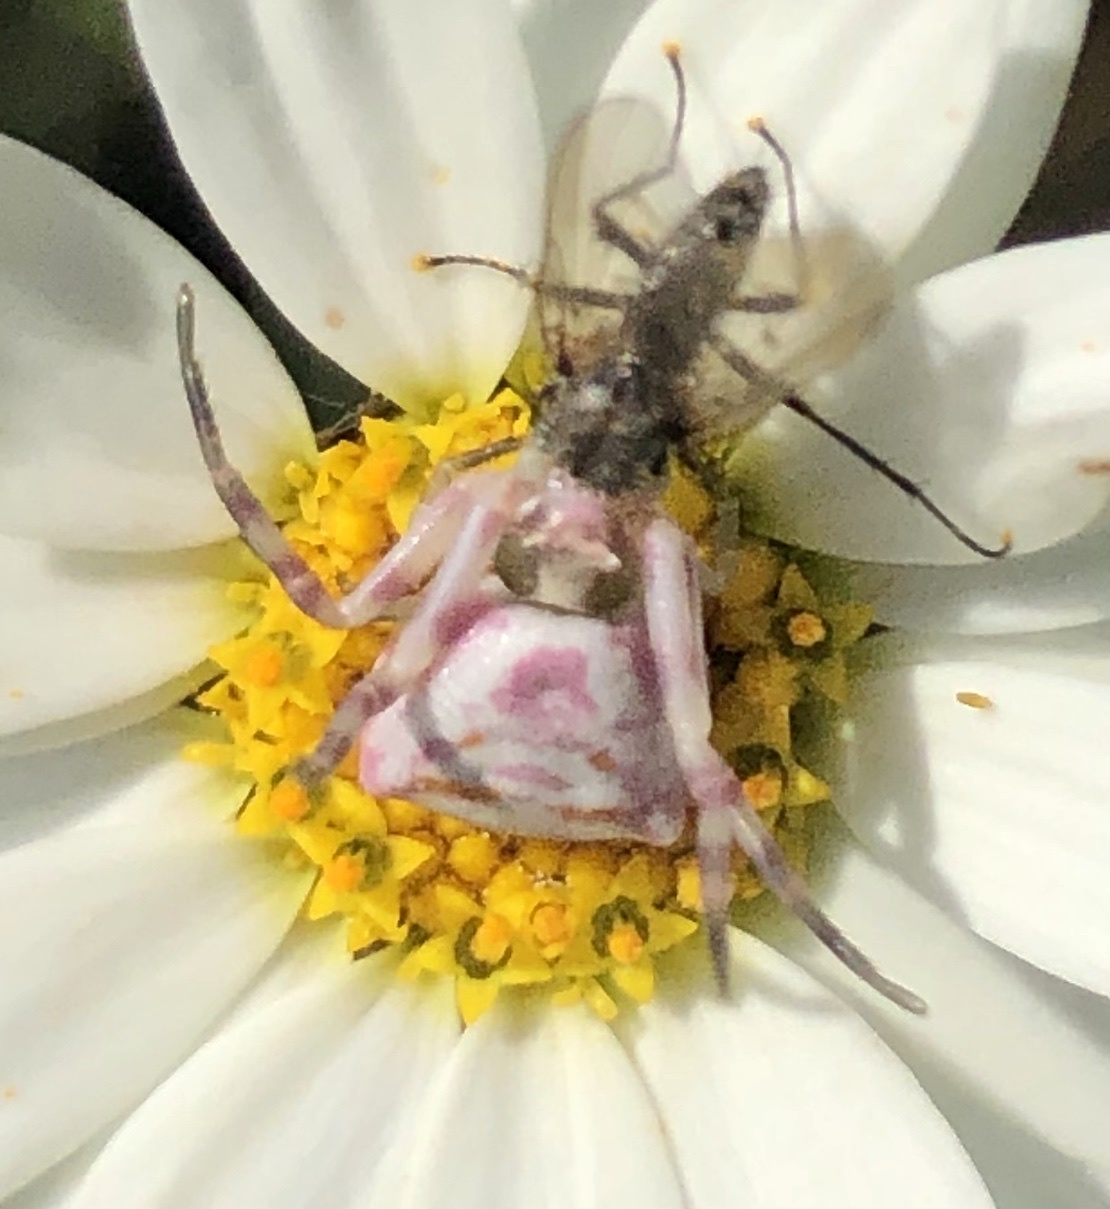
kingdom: Animalia
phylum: Arthropoda
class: Arachnida
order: Araneae
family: Thomisidae
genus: Thomisus
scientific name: Thomisus onustus
